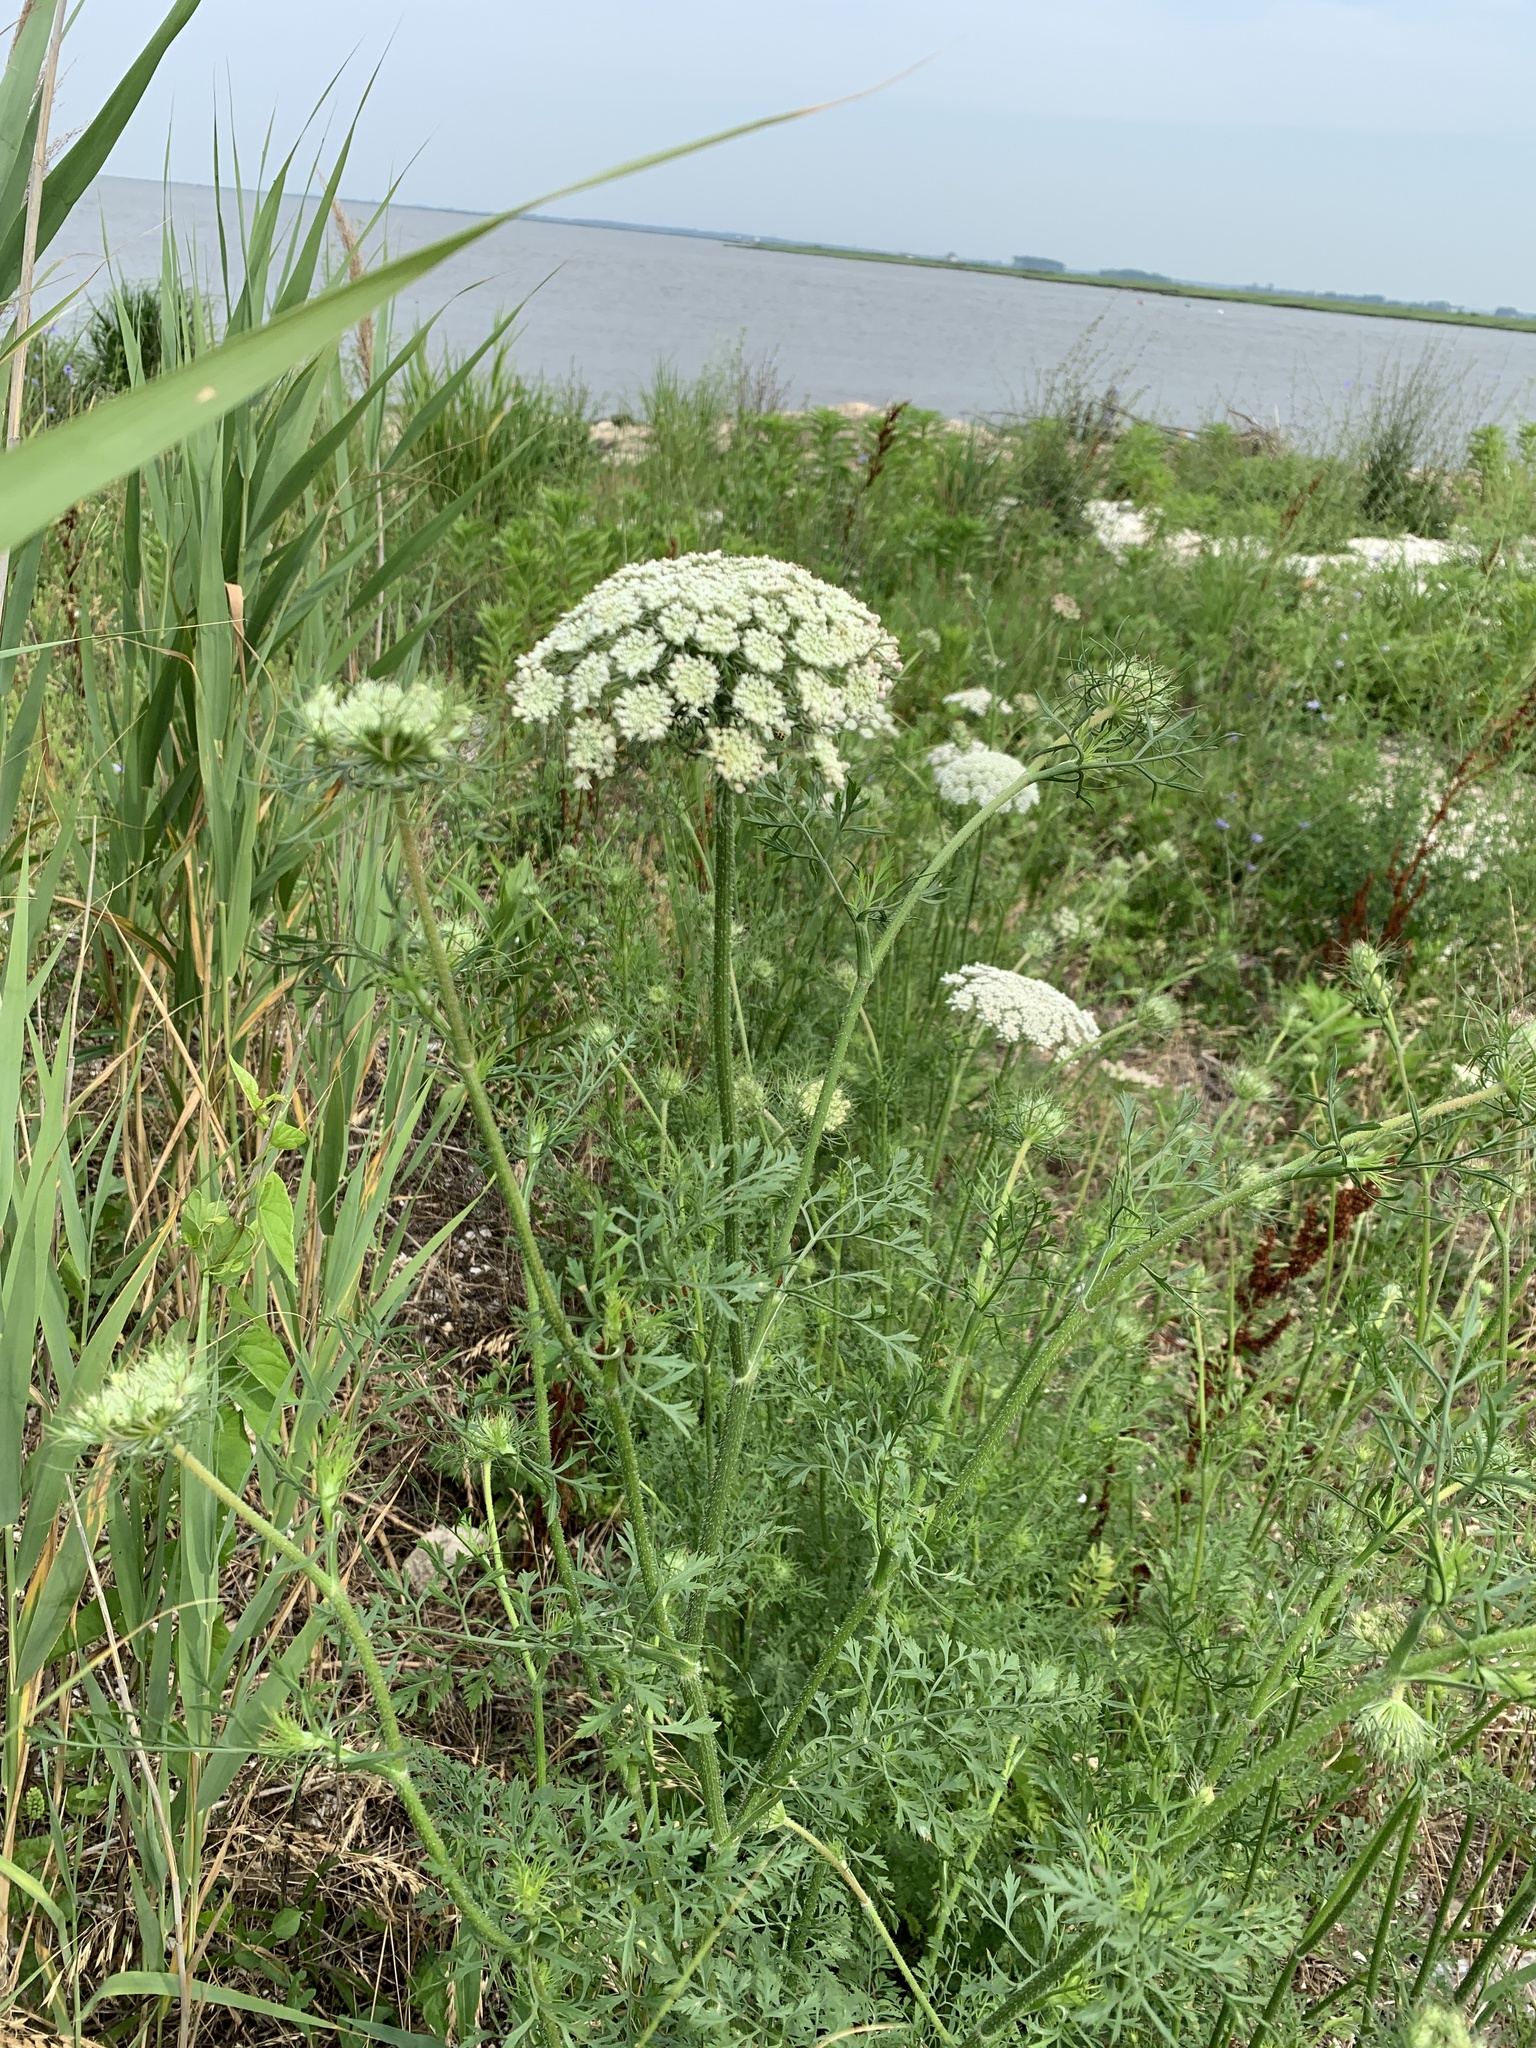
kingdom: Plantae
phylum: Tracheophyta
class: Magnoliopsida
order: Apiales
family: Apiaceae
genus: Daucus
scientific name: Daucus carota
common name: Wild carrot
